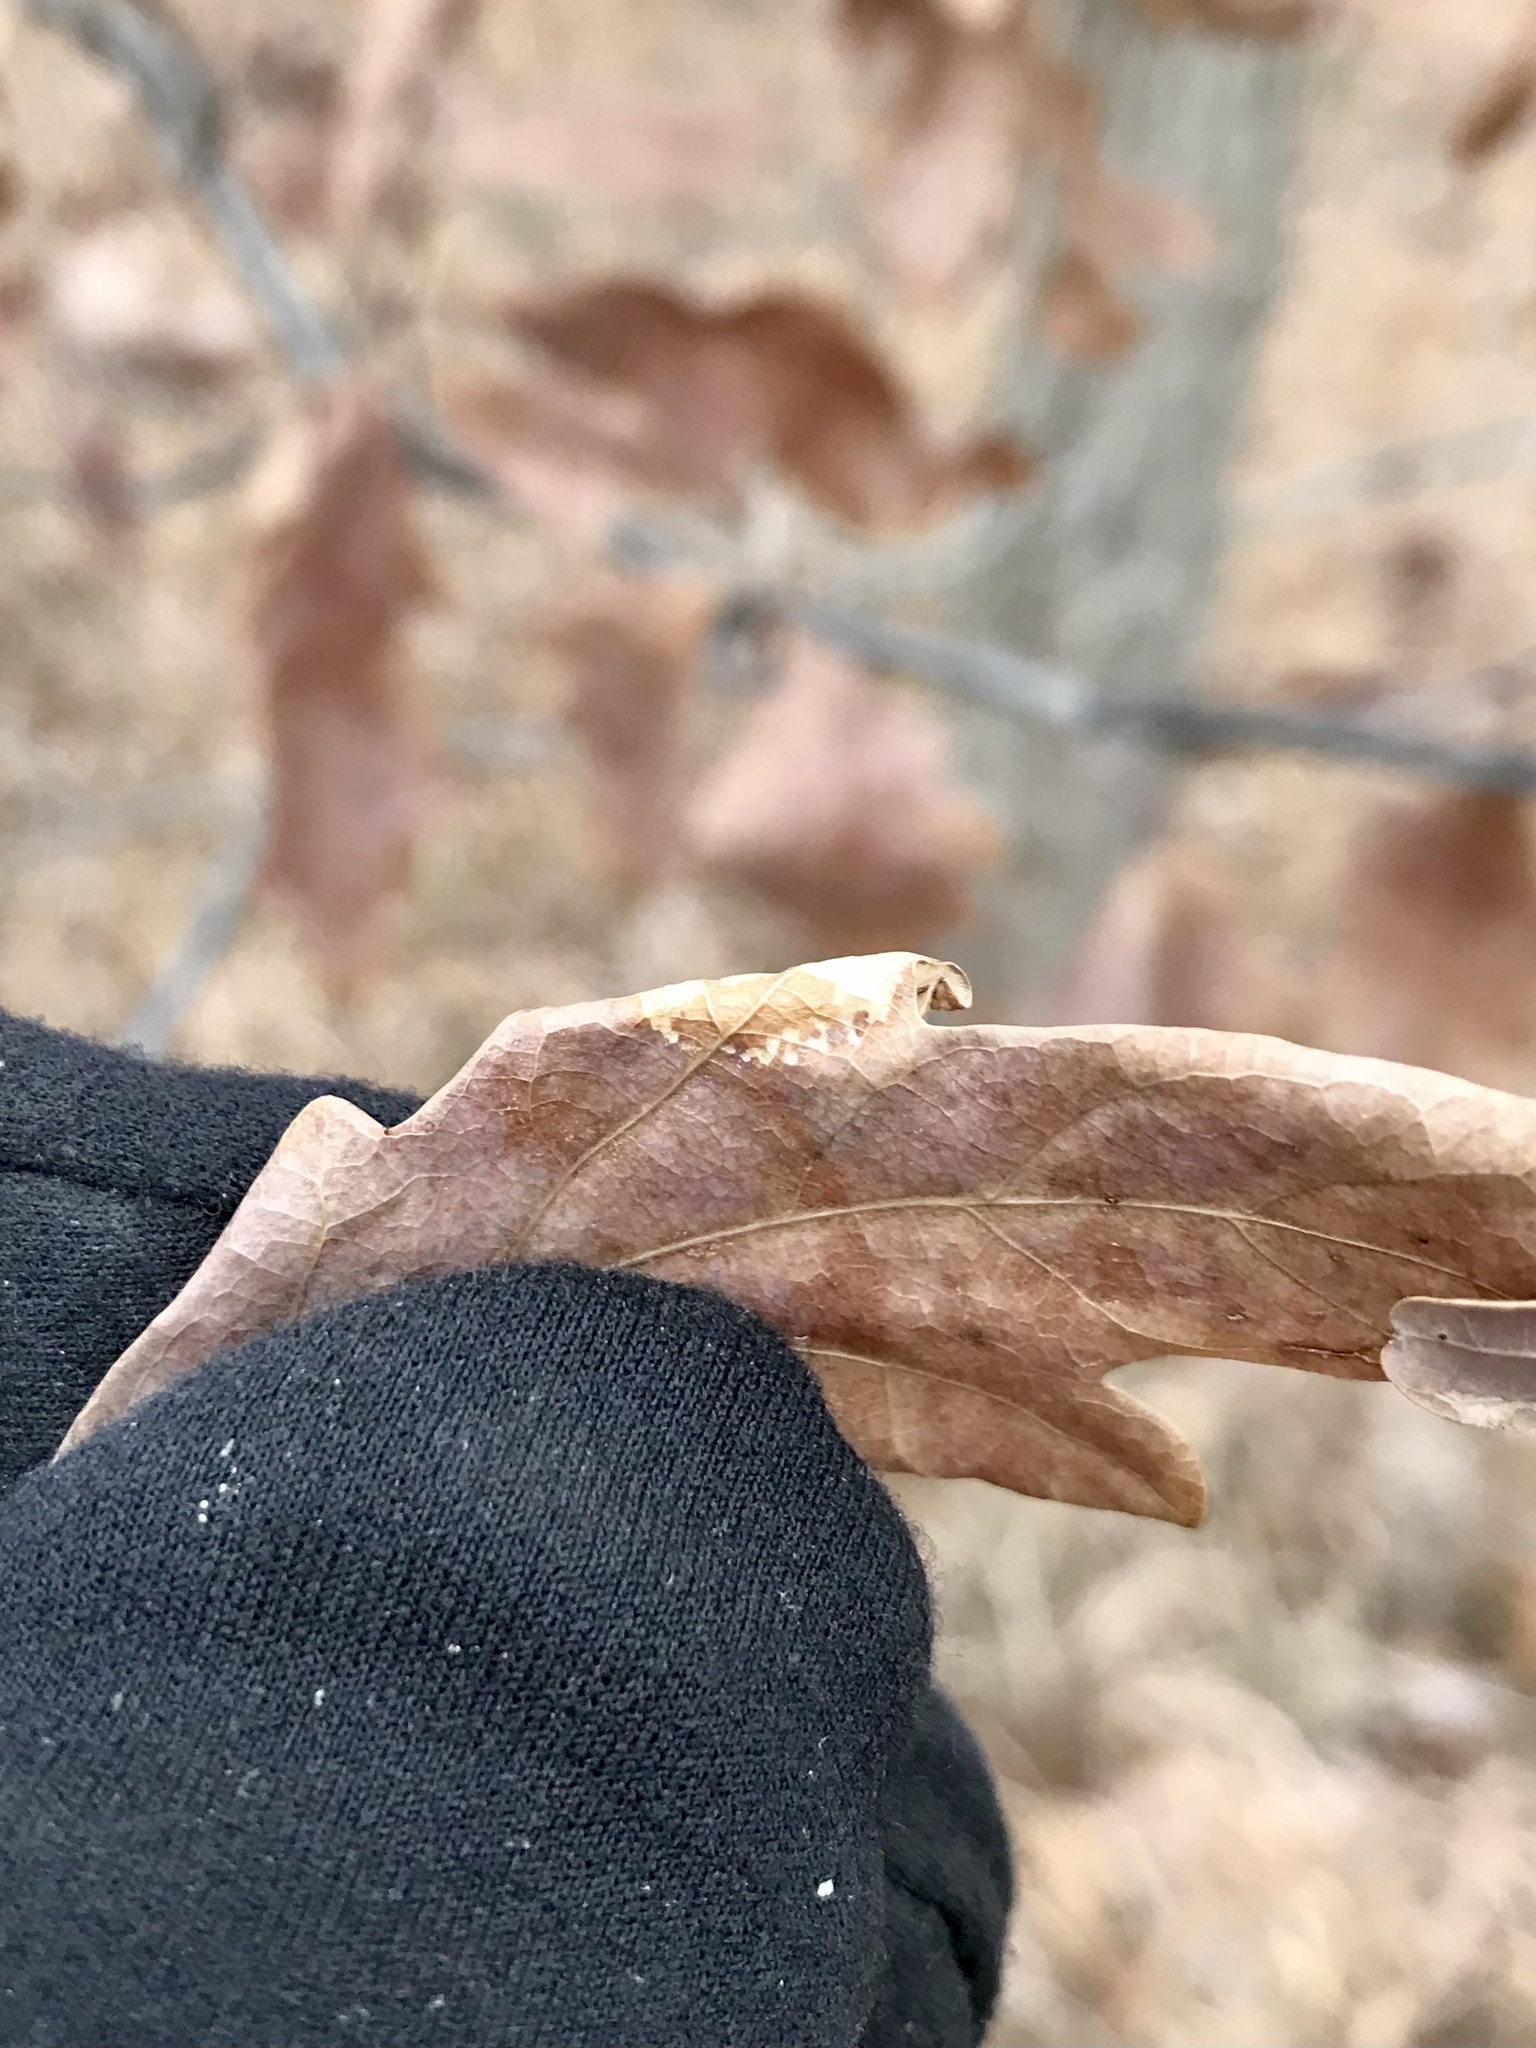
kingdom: Animalia
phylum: Arthropoda
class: Insecta
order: Lepidoptera
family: Gracillariidae
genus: Phyllonorycter
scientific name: Phyllonorycter
